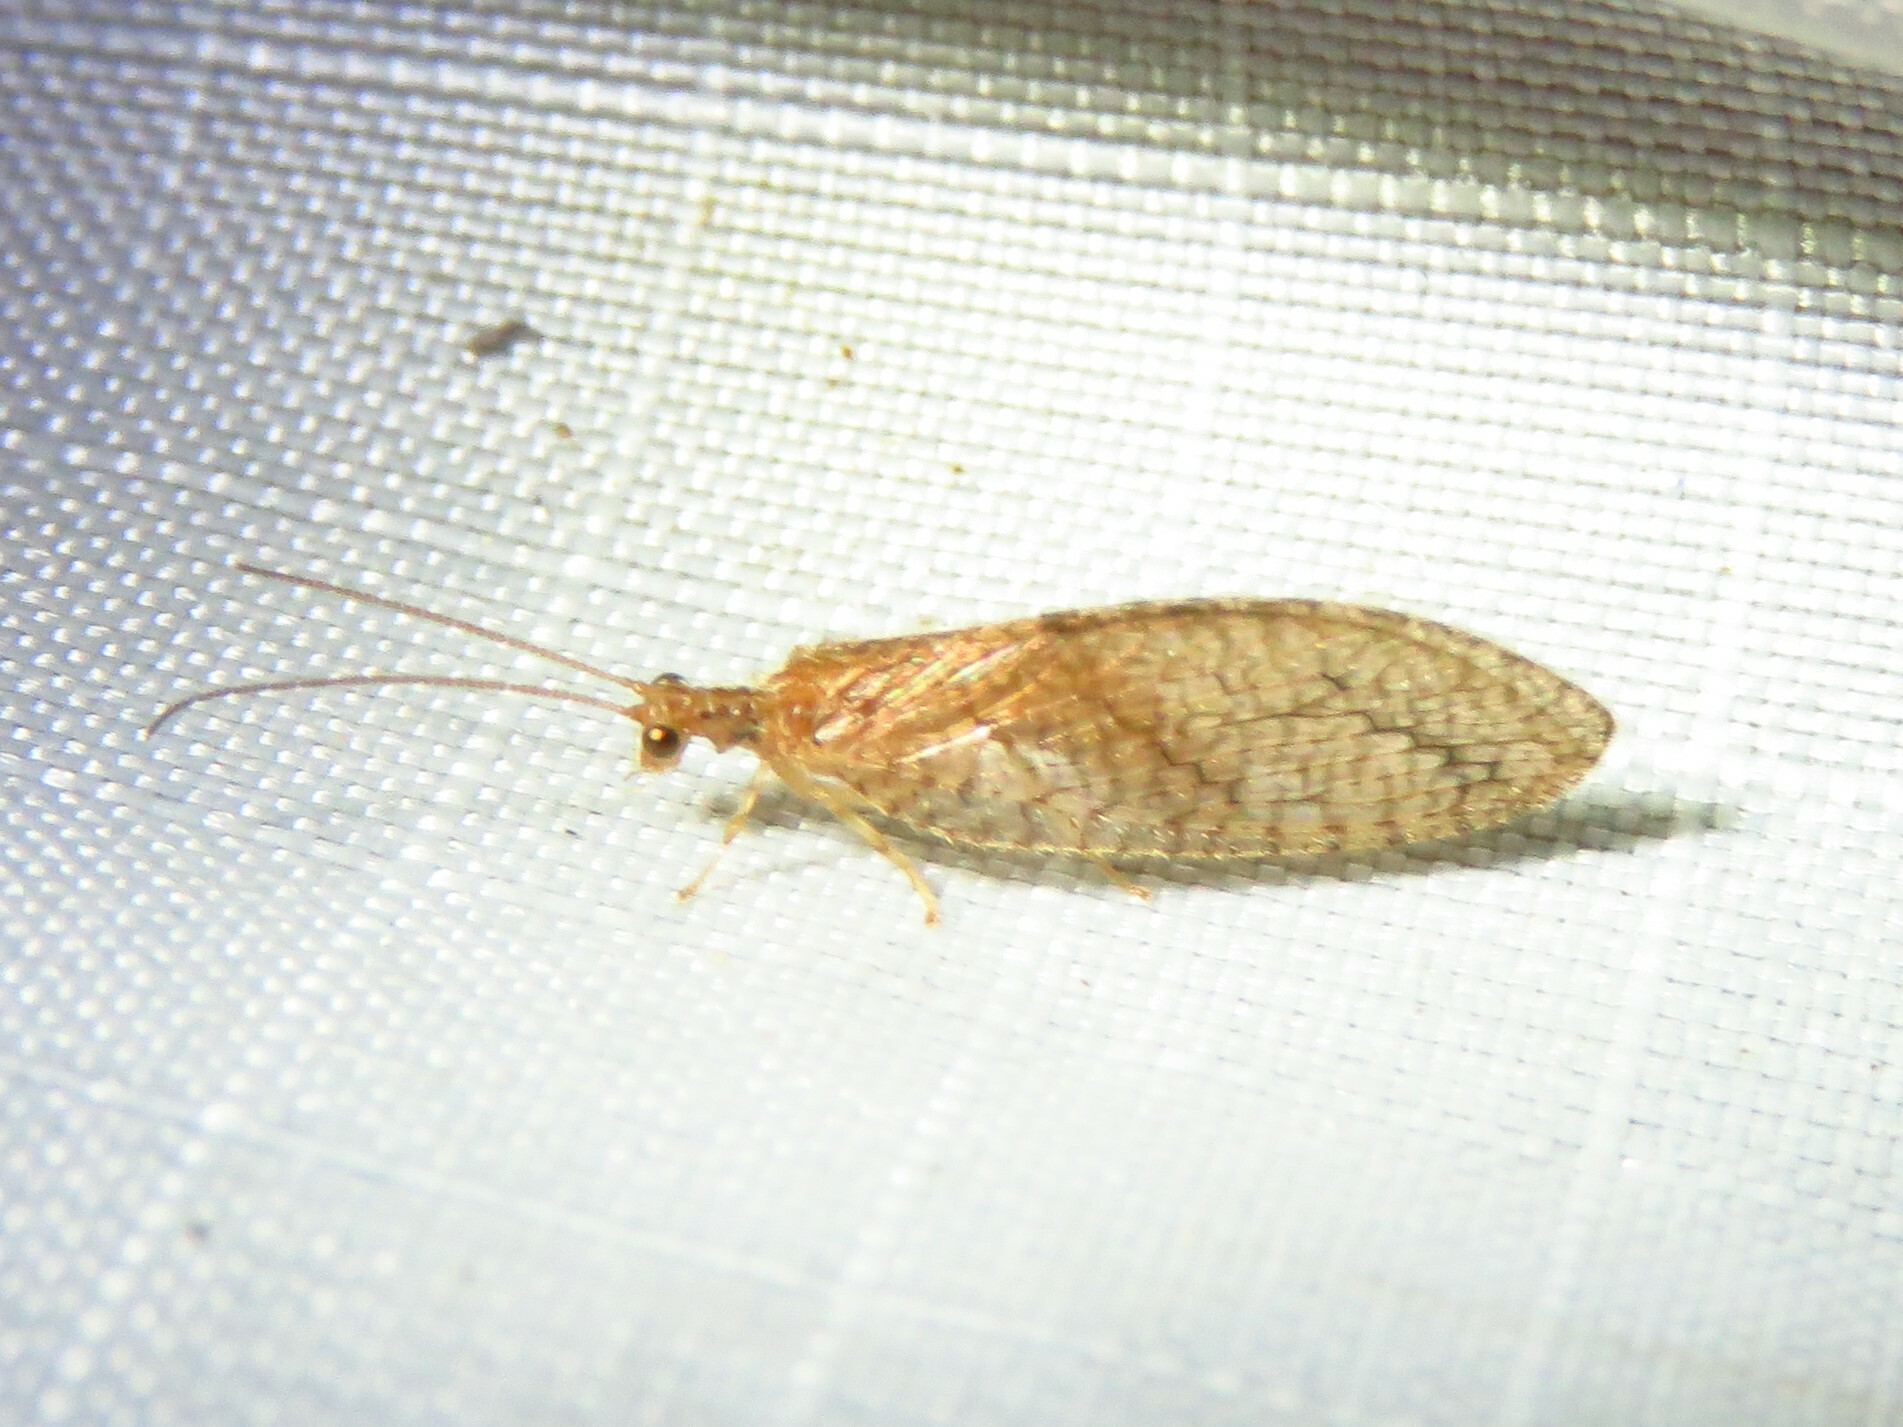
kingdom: Animalia
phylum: Arthropoda
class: Insecta
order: Neuroptera
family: Hemerobiidae
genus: Micromus
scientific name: Micromus posticus
